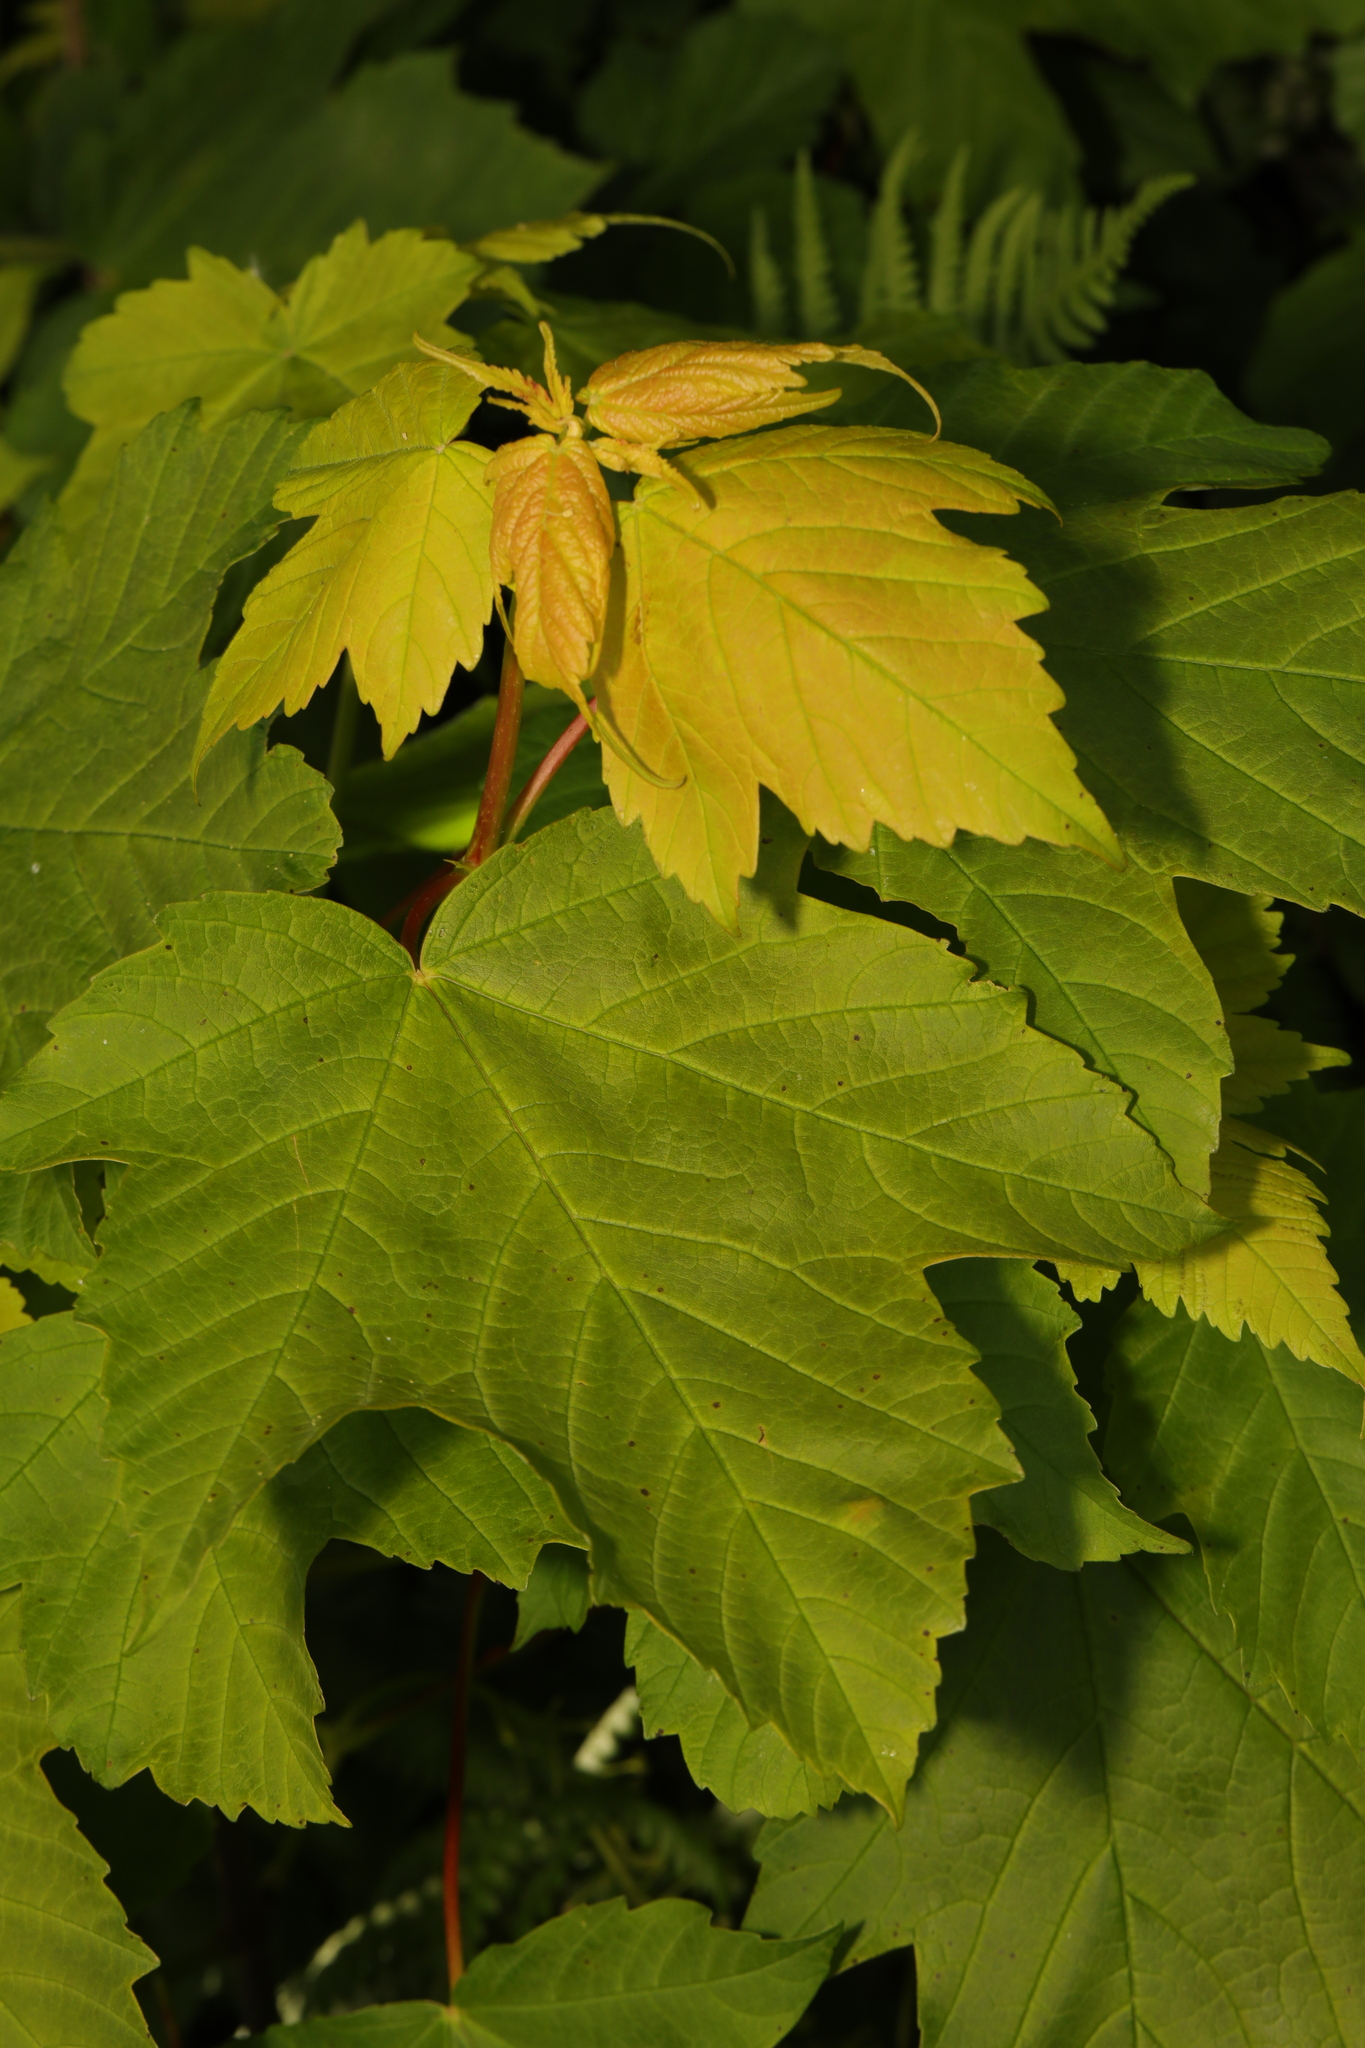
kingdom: Plantae
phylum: Tracheophyta
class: Magnoliopsida
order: Sapindales
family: Sapindaceae
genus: Acer
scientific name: Acer pseudoplatanus
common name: Sycamore
